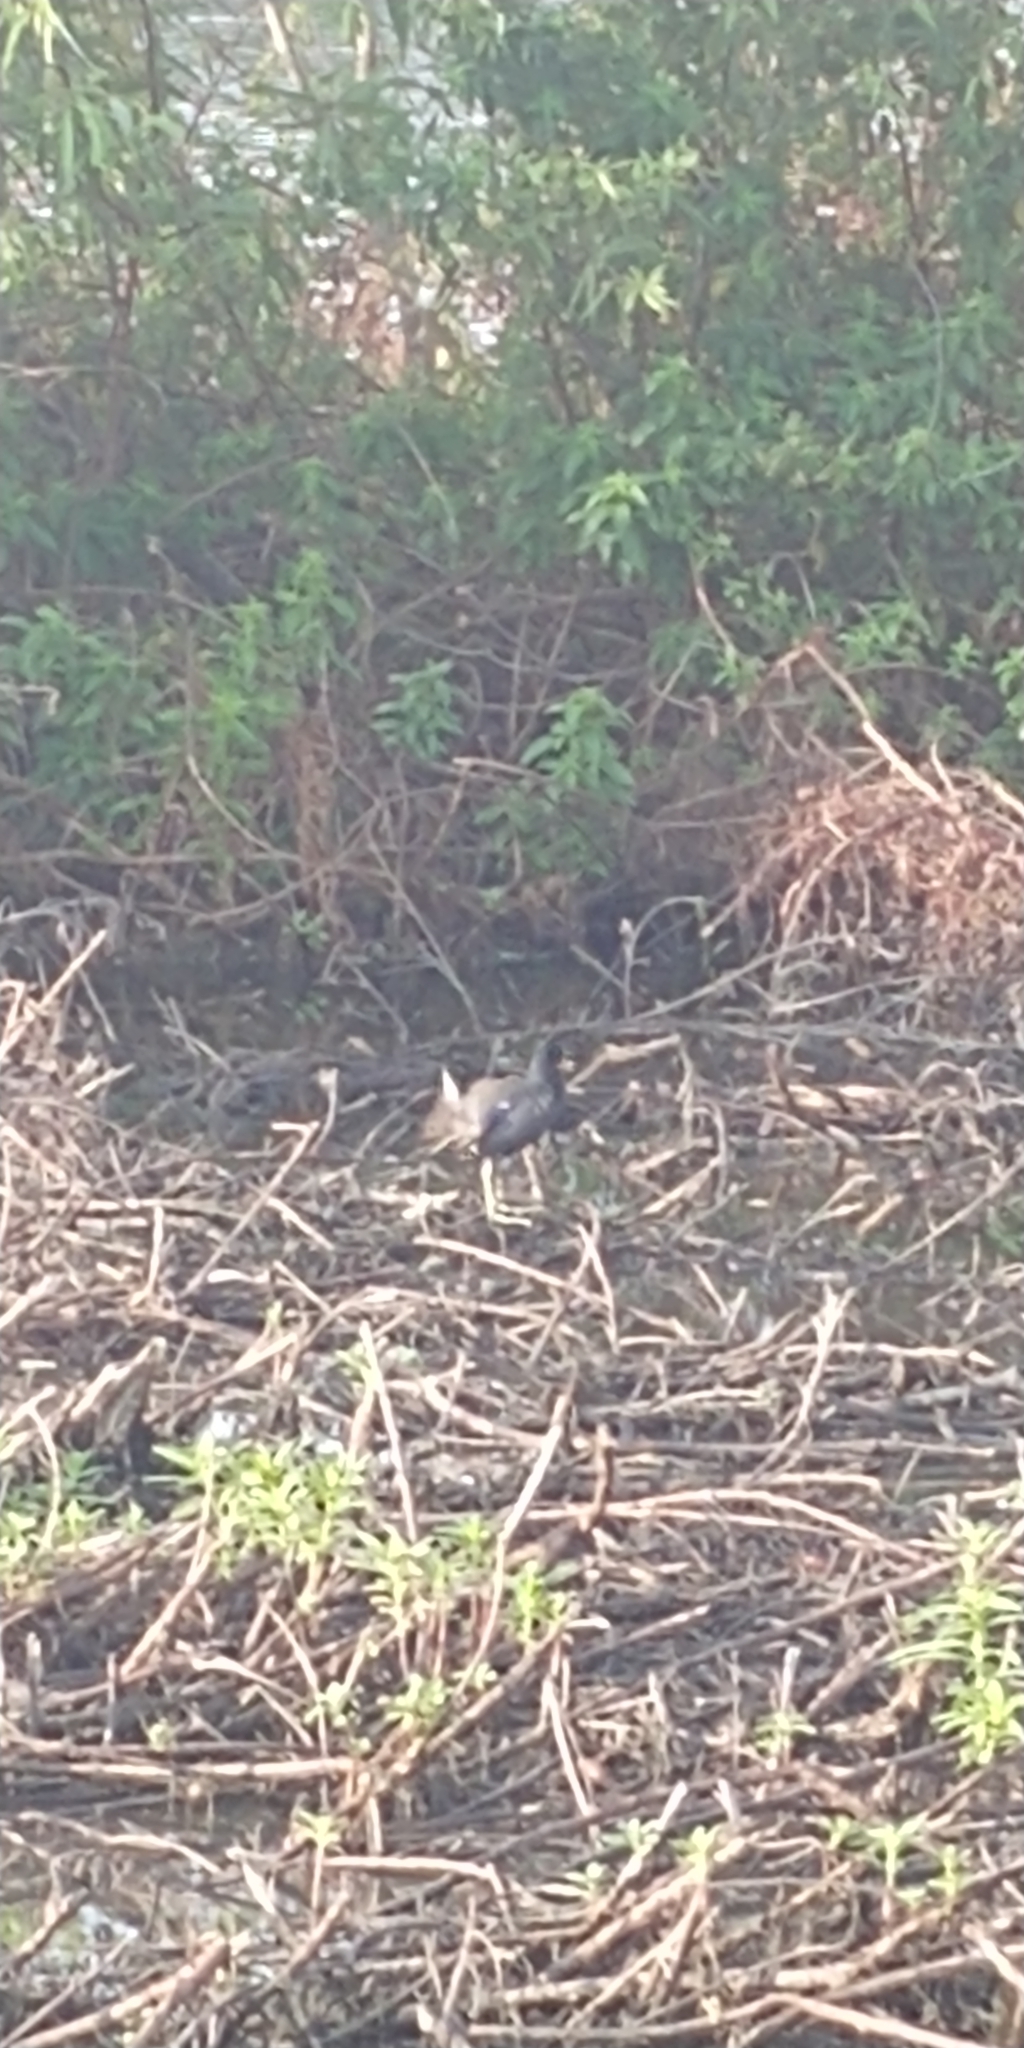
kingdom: Animalia
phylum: Chordata
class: Aves
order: Gruiformes
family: Rallidae
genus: Gallinula
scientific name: Gallinula chloropus
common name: Common moorhen
